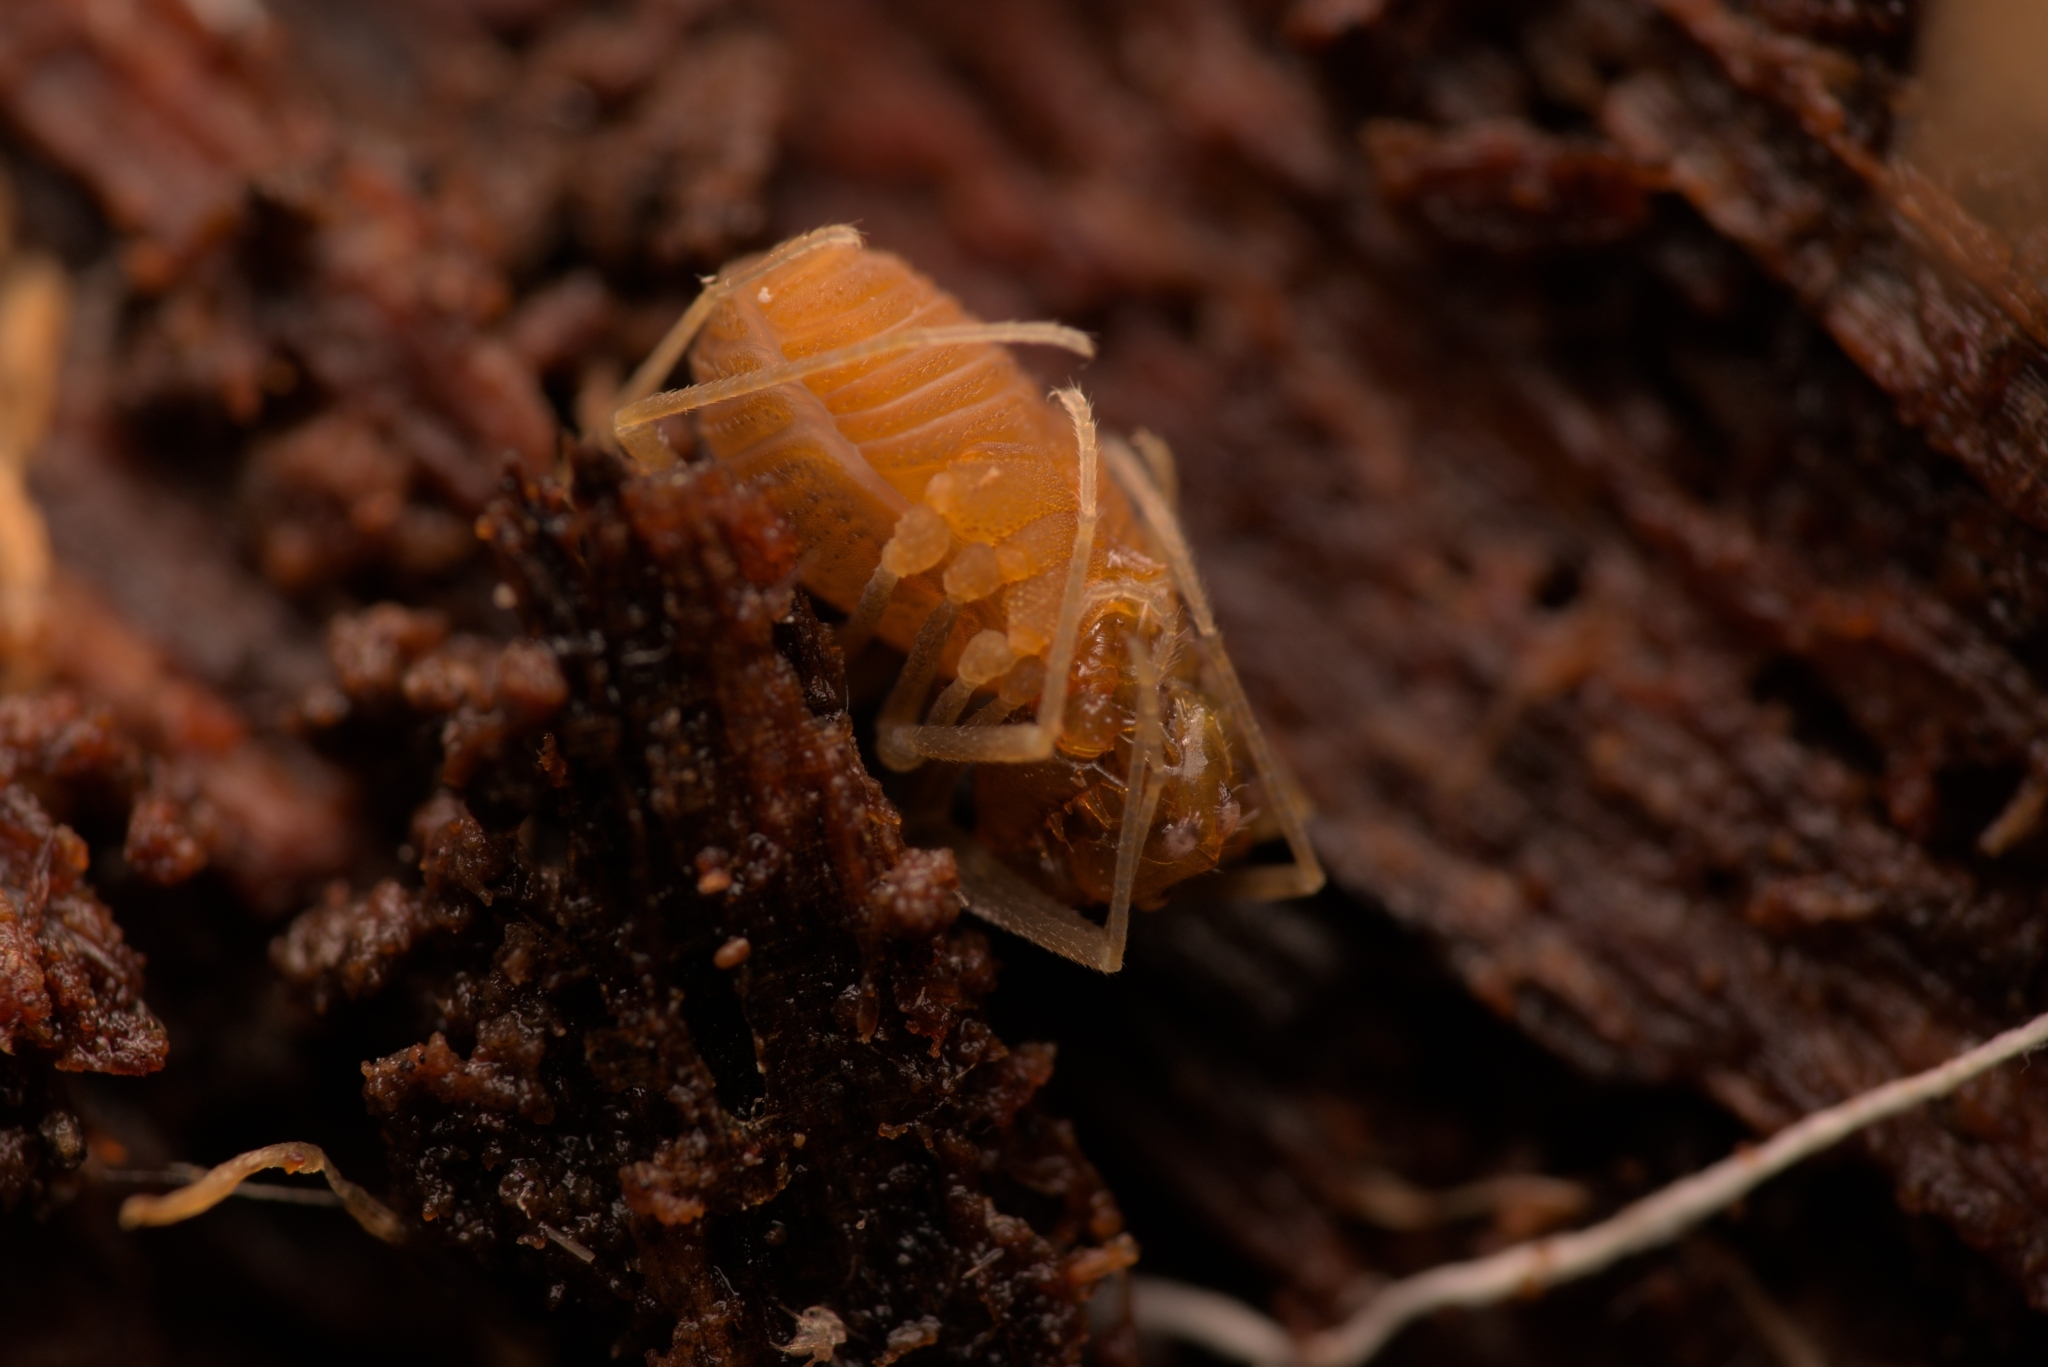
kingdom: Animalia
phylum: Arthropoda
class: Arachnida
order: Opiliones
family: Cladonychiidae
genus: Holoscotolemon
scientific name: Holoscotolemon querilhaci
